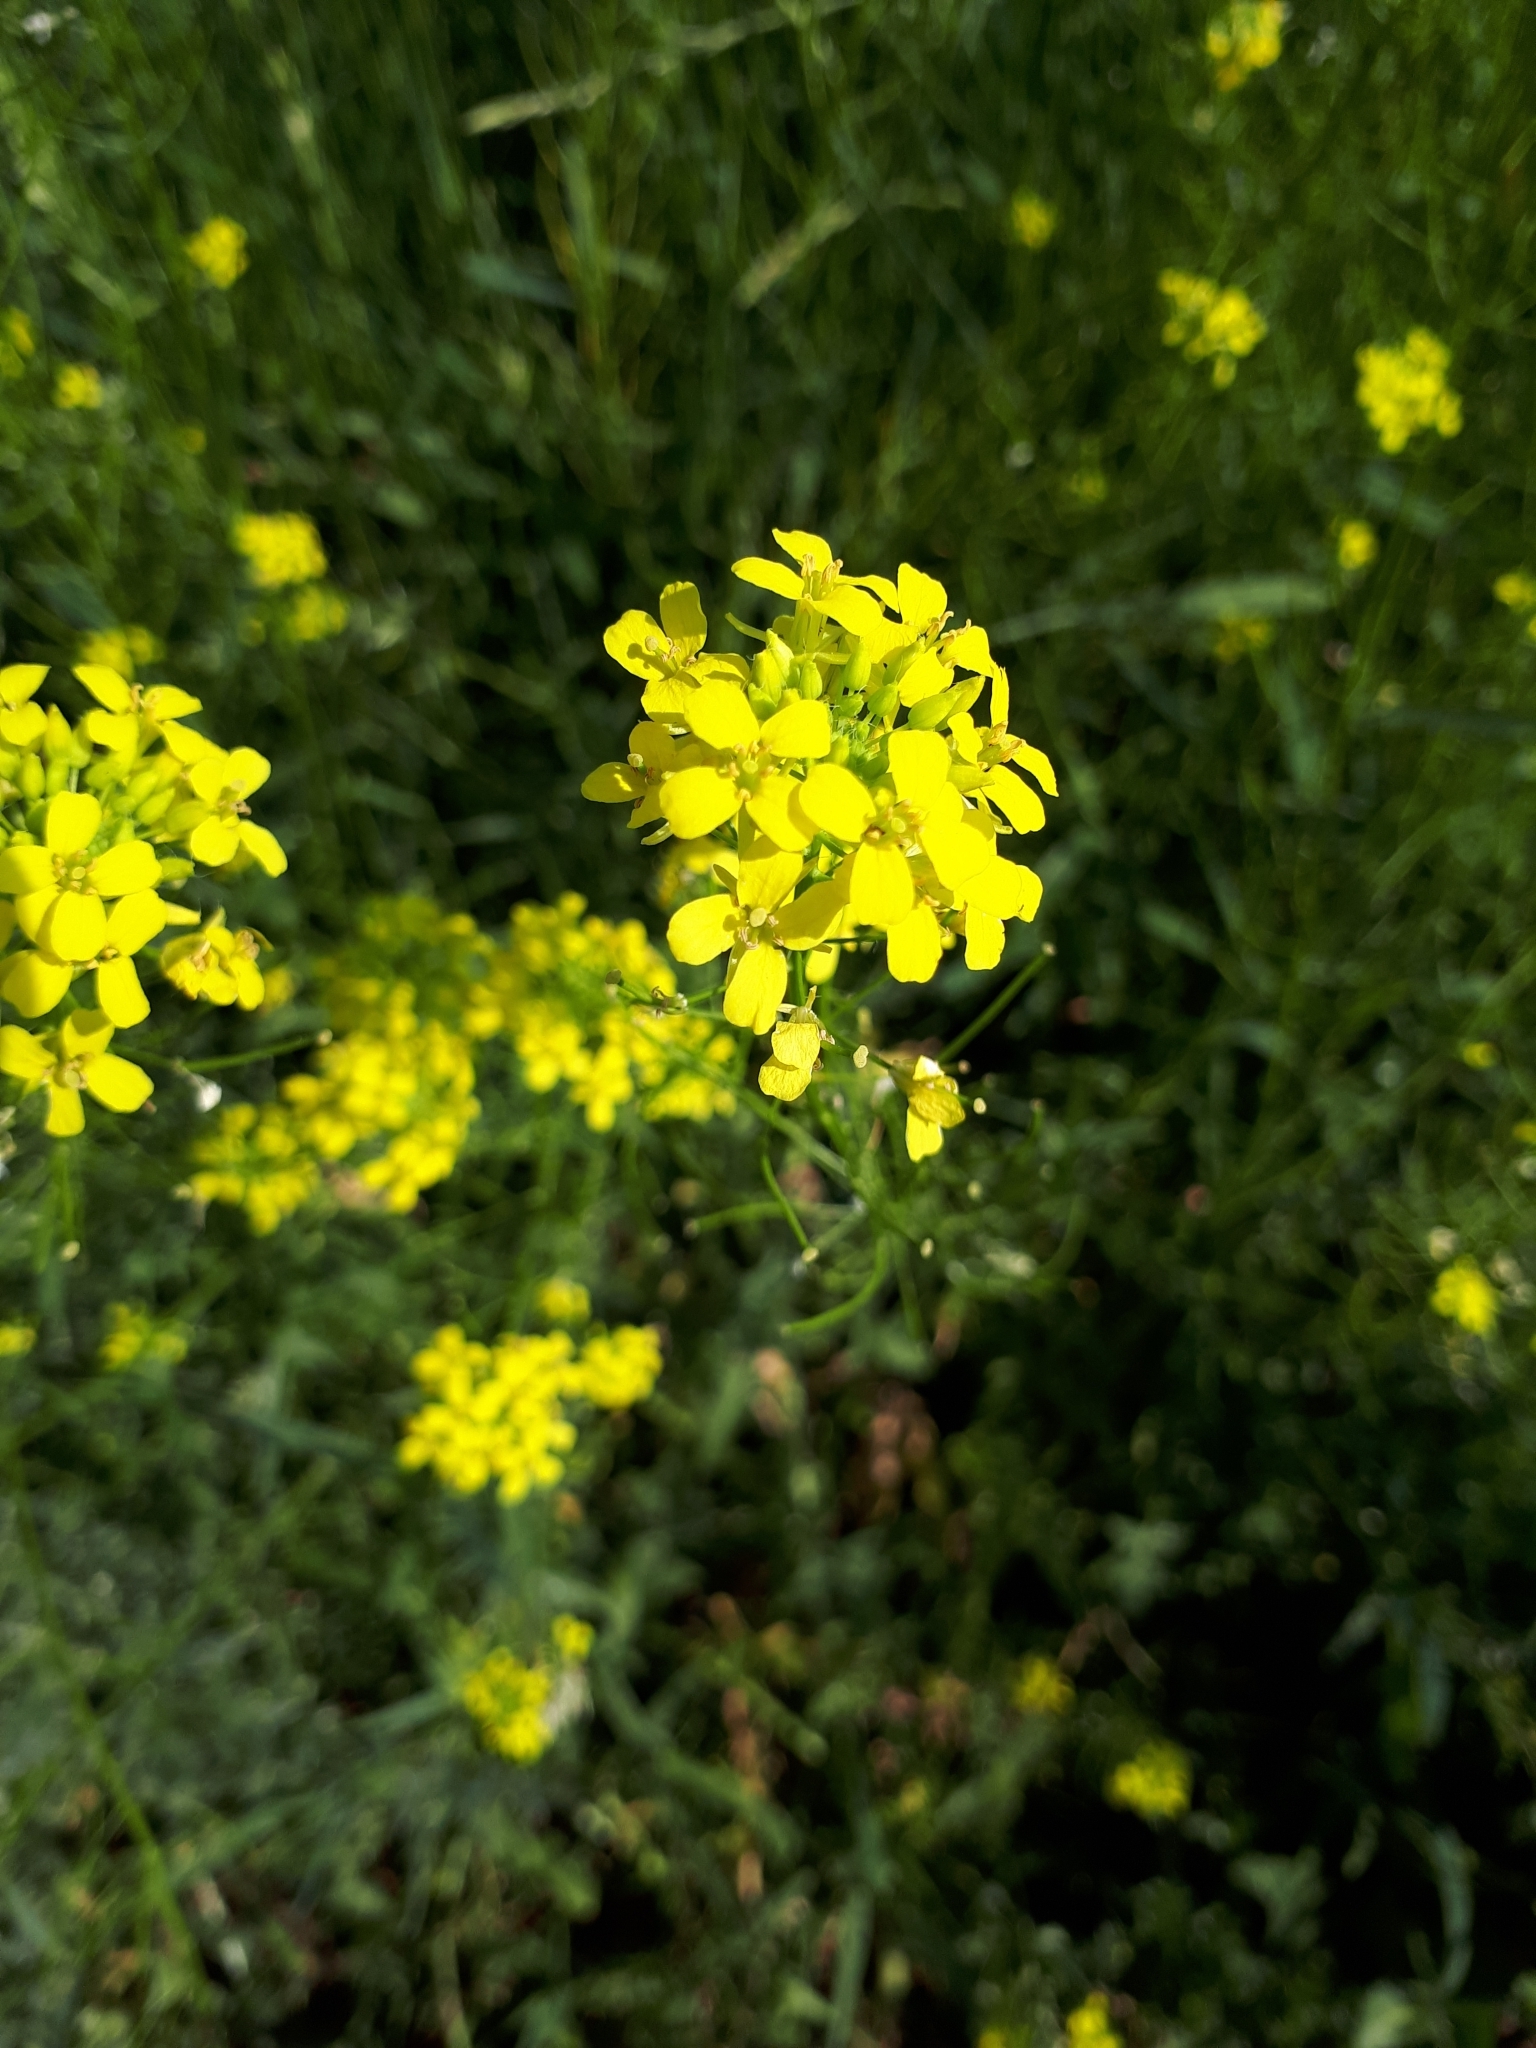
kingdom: Plantae
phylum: Tracheophyta
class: Magnoliopsida
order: Brassicales
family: Brassicaceae
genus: Sisymbrium
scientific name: Sisymbrium loeselii
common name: False london-rocket
